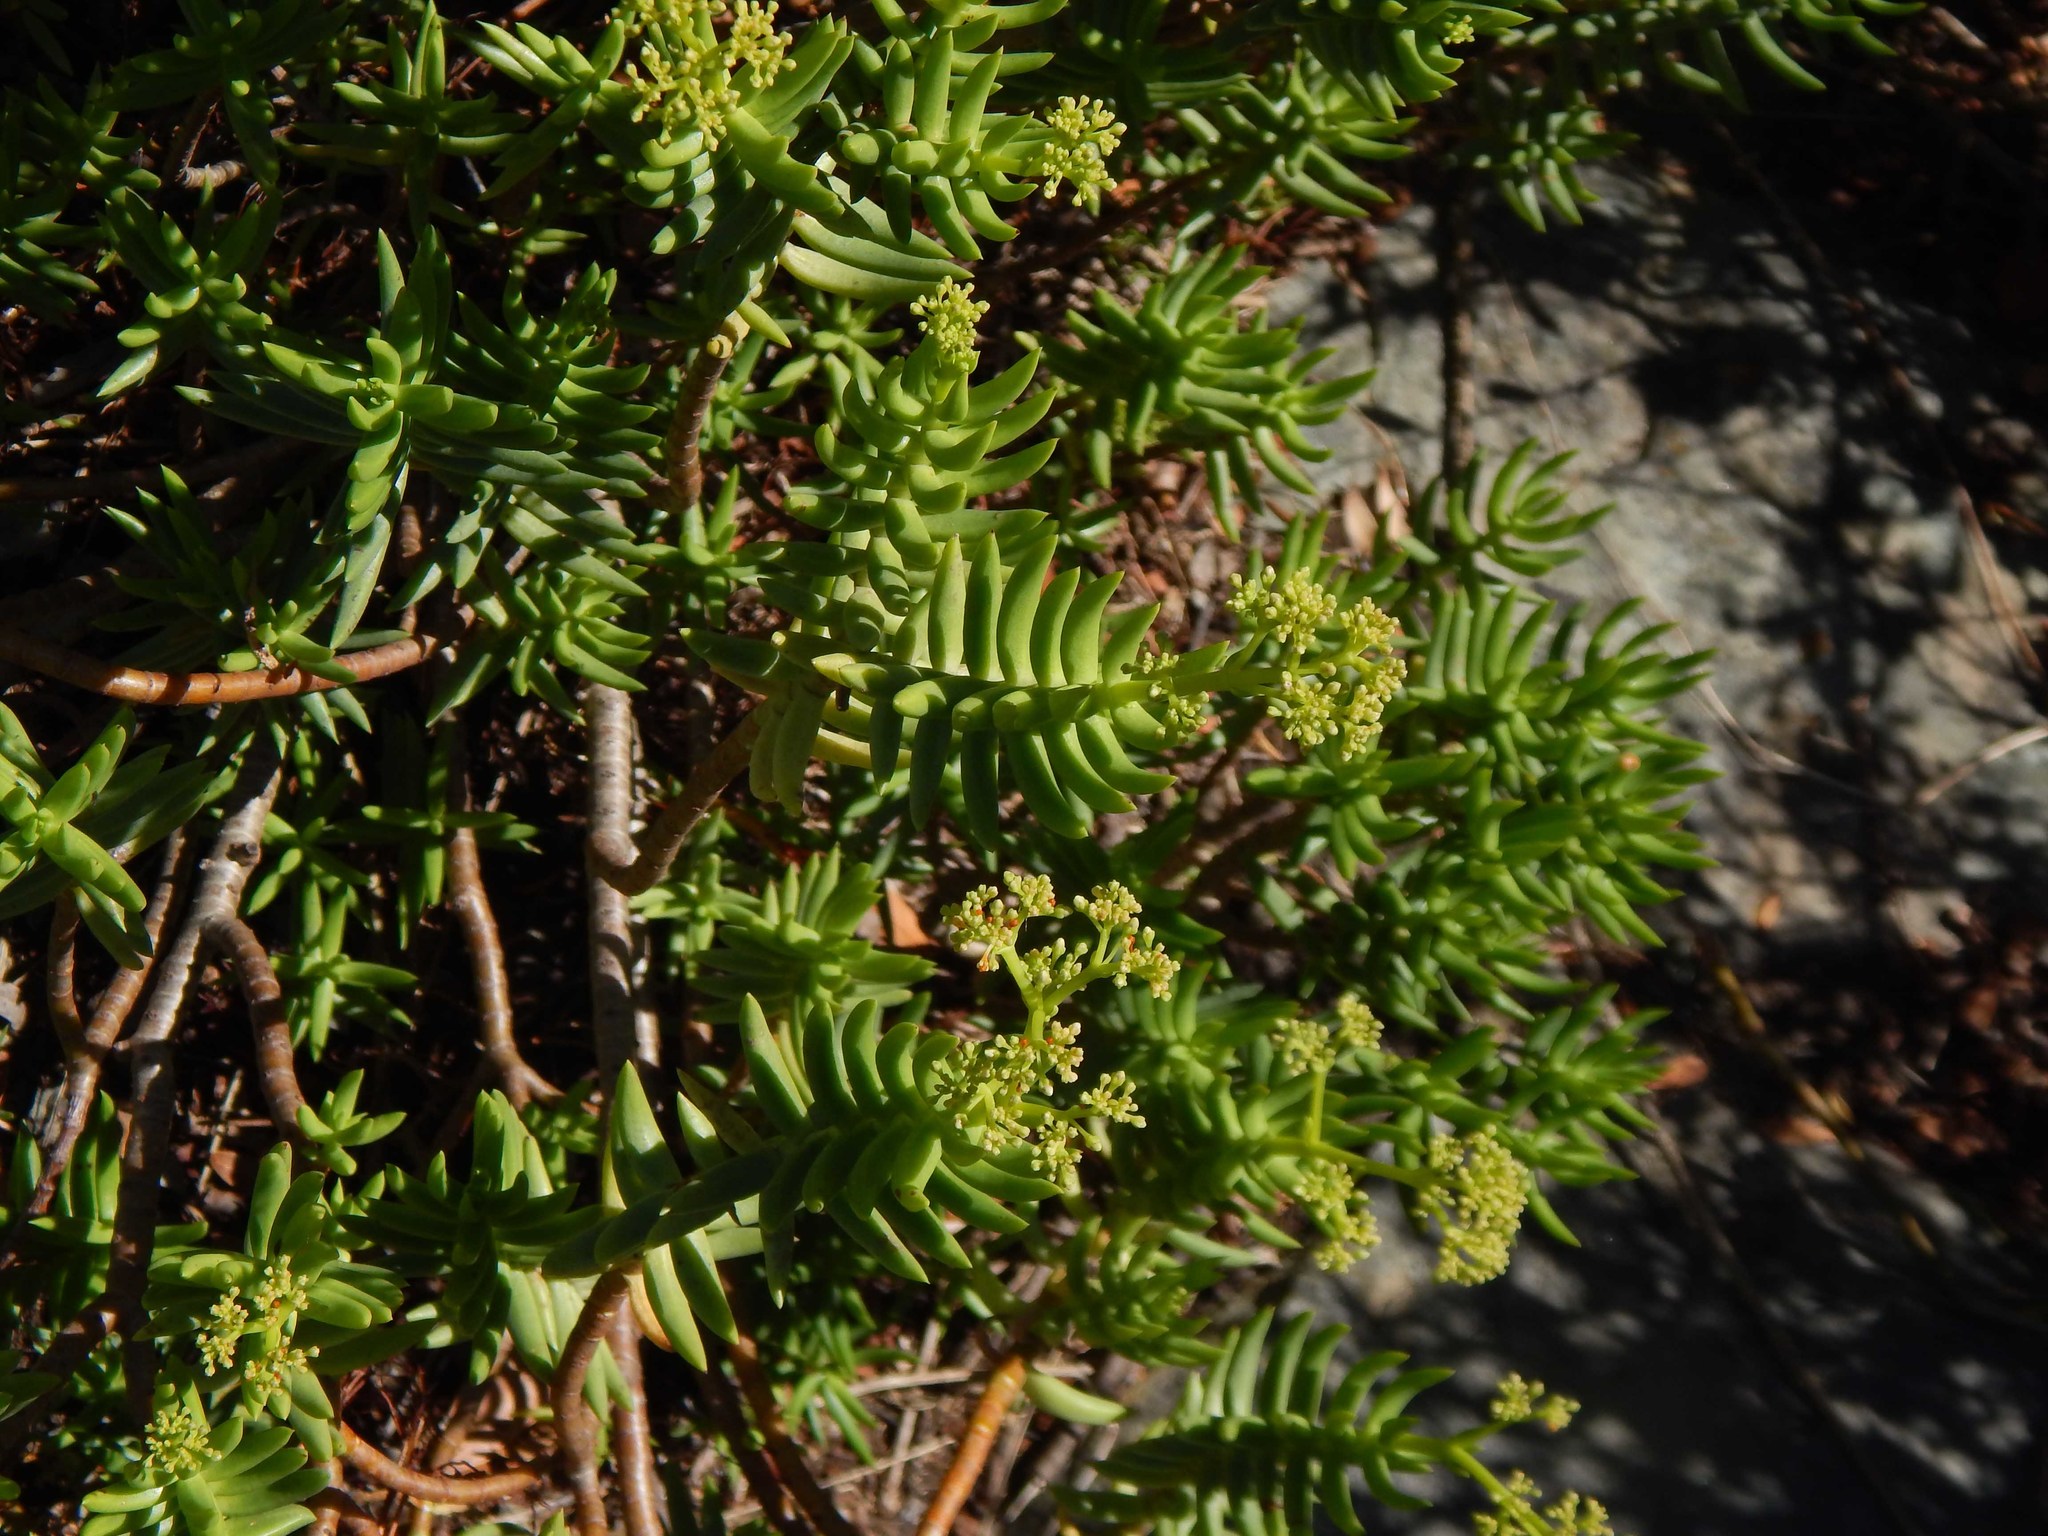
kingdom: Plantae
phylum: Tracheophyta
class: Magnoliopsida
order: Saxifragales
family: Crassulaceae
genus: Crassula
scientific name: Crassula tetragona
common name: Pygmyweed
